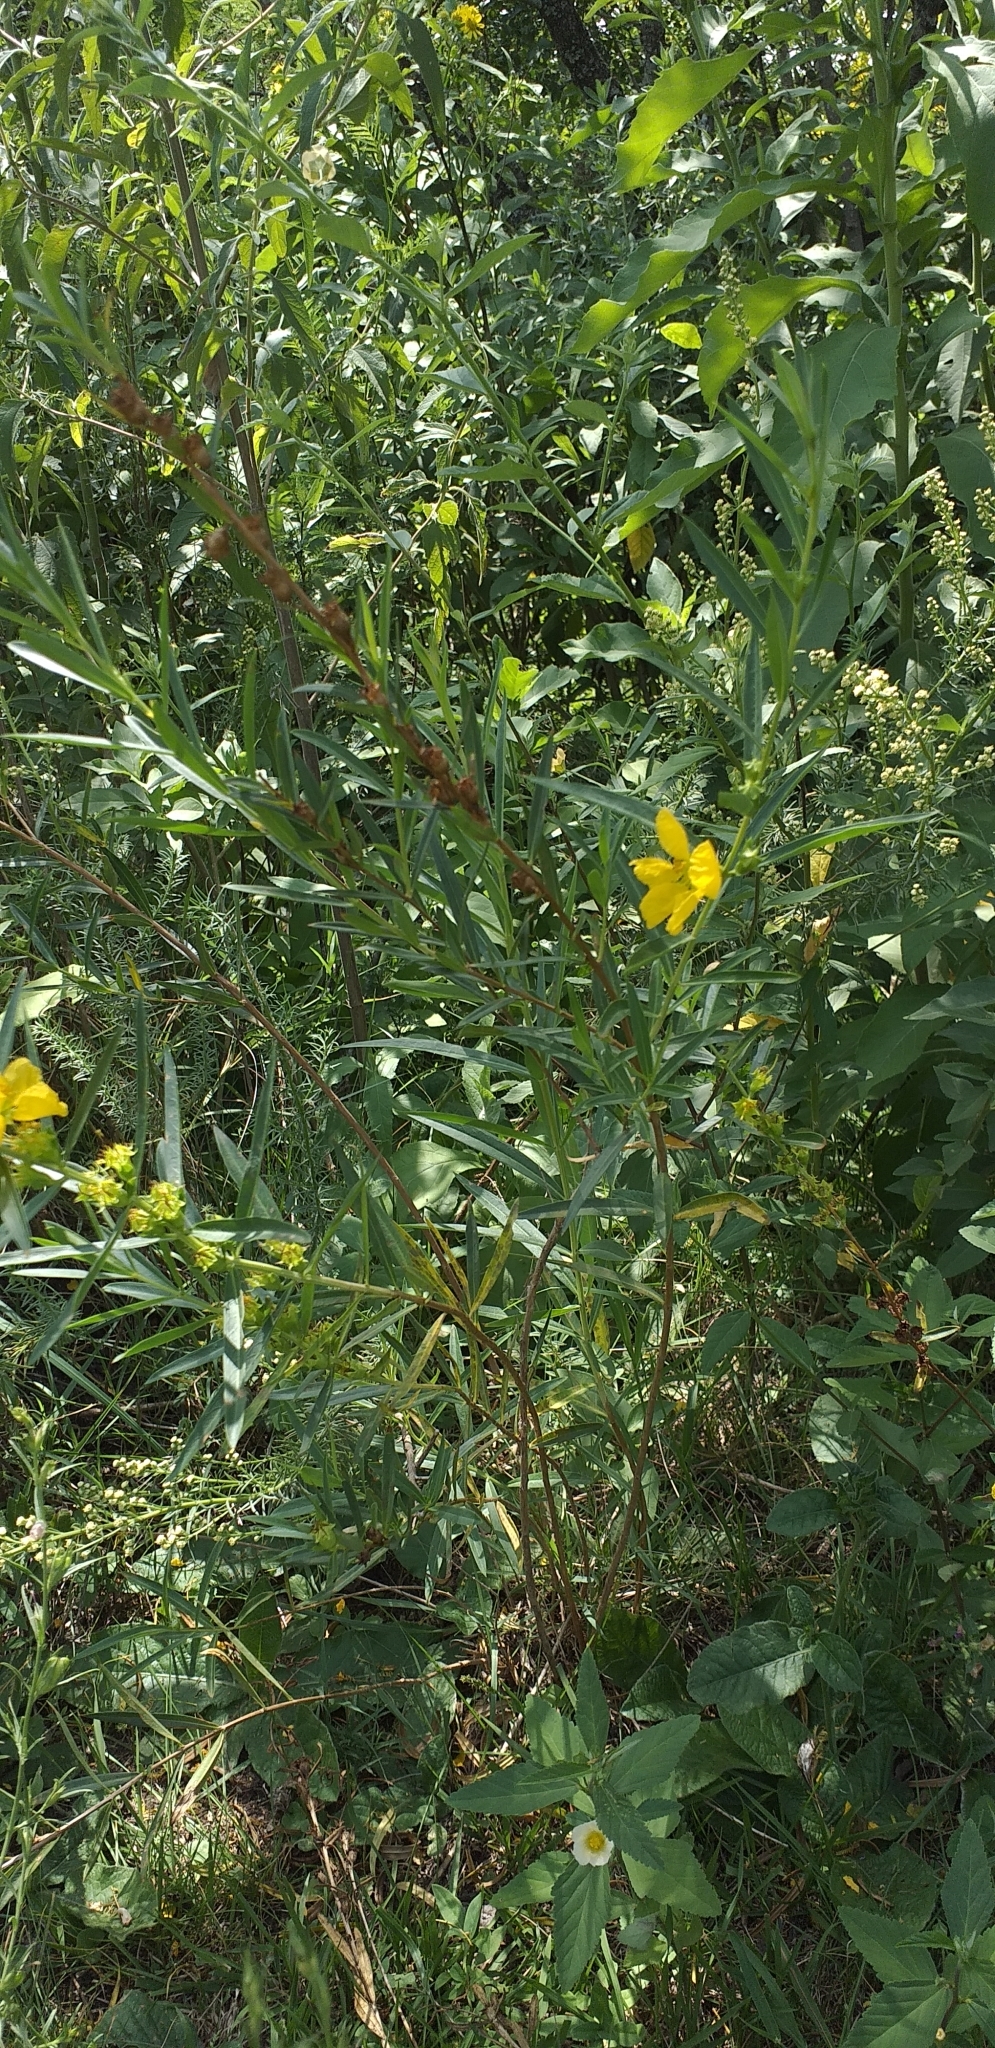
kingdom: Plantae
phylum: Tracheophyta
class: Magnoliopsida
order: Myrtales
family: Lythraceae
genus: Heimia
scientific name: Heimia salicifolia
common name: Willow-leaf heimia
